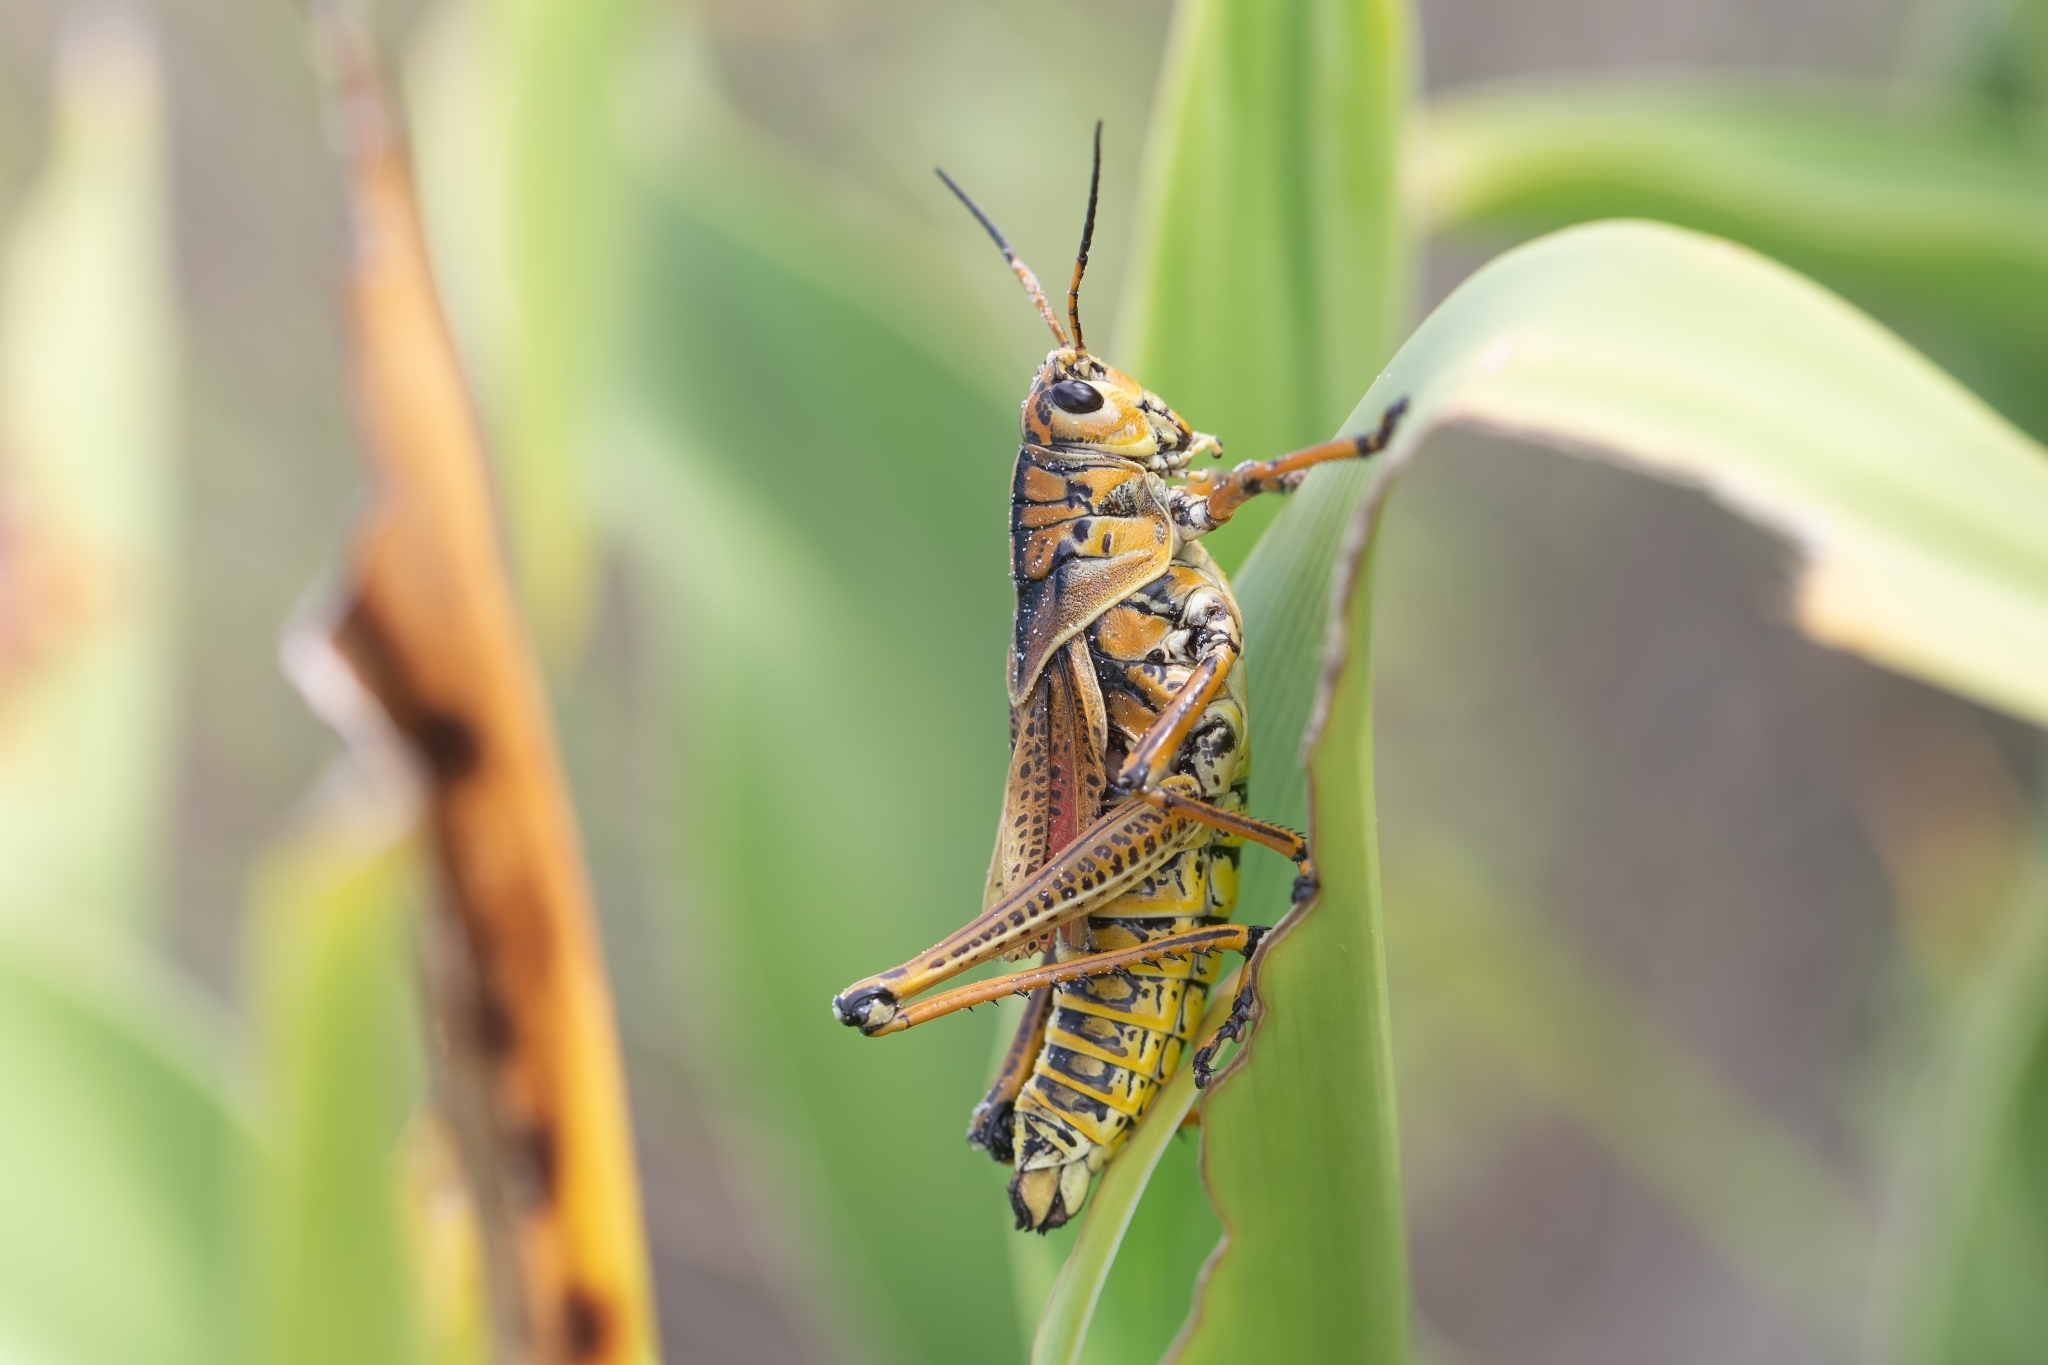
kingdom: Animalia
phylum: Arthropoda
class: Insecta
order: Orthoptera
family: Romaleidae
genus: Romalea
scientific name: Romalea microptera
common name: Eastern lubber grasshopper
